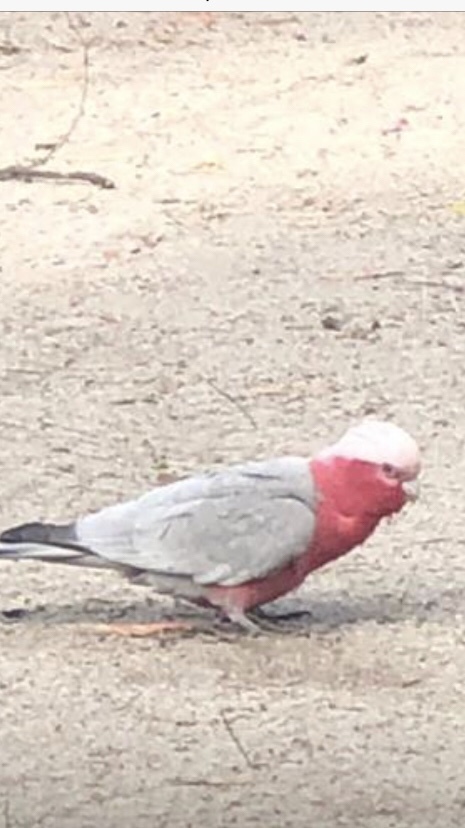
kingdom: Animalia
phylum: Chordata
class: Aves
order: Psittaciformes
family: Psittacidae
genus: Eolophus
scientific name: Eolophus roseicapilla
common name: Galah
